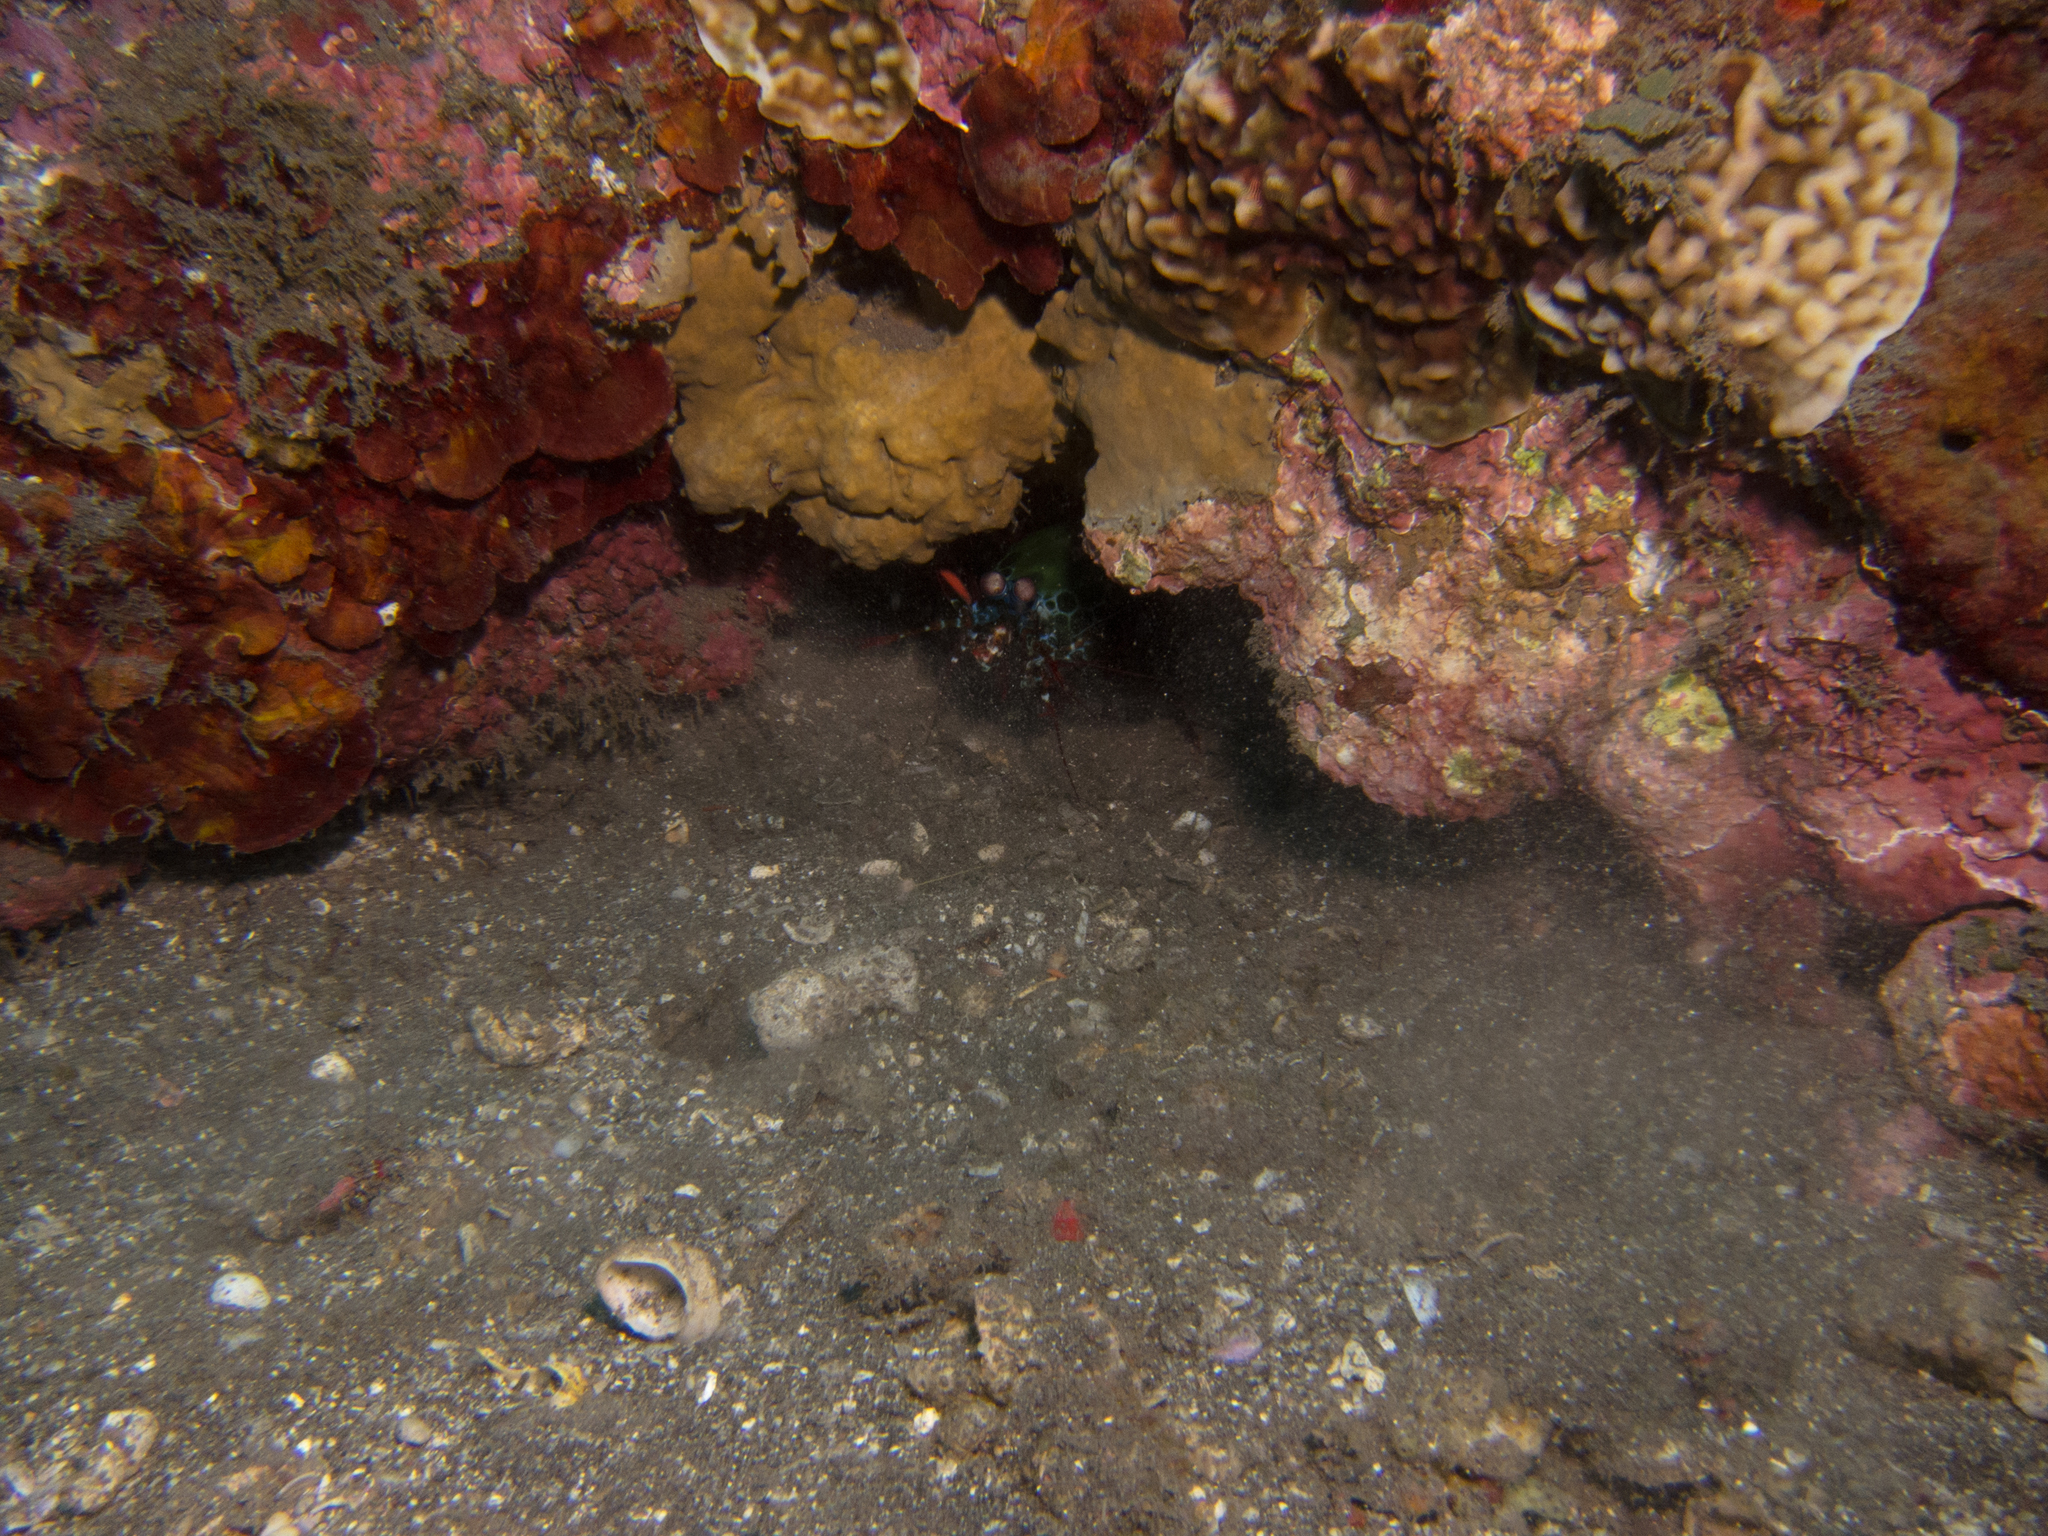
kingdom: Animalia
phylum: Arthropoda
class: Malacostraca
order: Stomatopoda
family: Odontodactylidae
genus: Odontodactylus
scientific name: Odontodactylus scyllarus
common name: Peacock mantis shrimp
